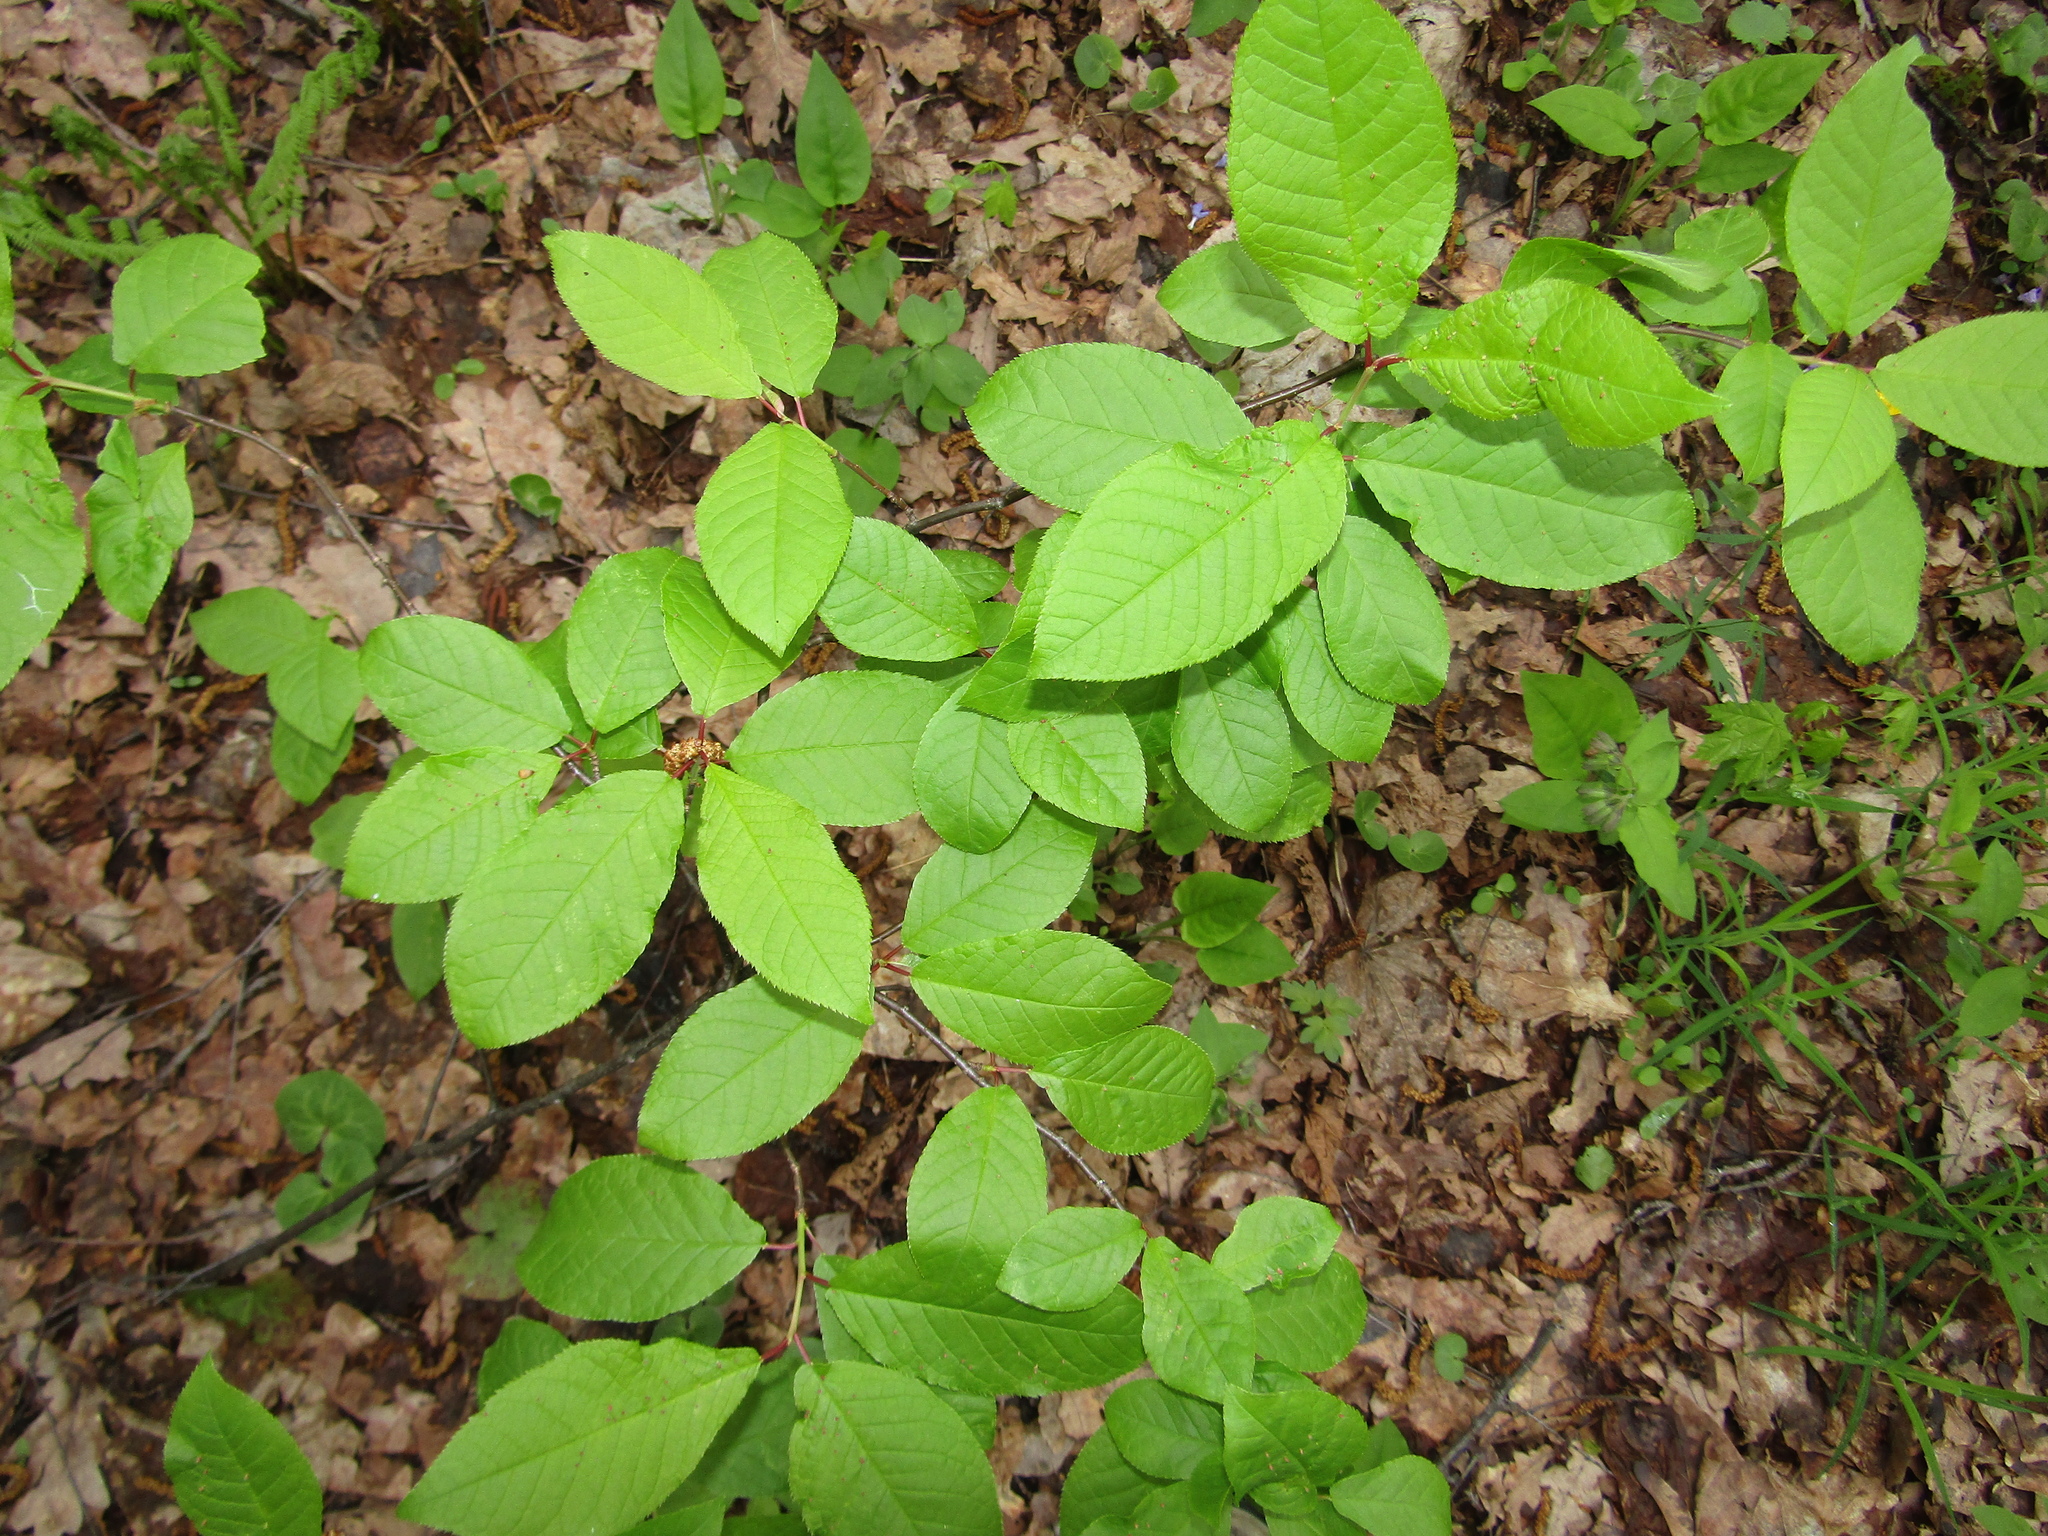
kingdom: Plantae
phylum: Tracheophyta
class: Magnoliopsida
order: Rosales
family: Rosaceae
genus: Prunus
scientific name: Prunus padus
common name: Bird cherry
